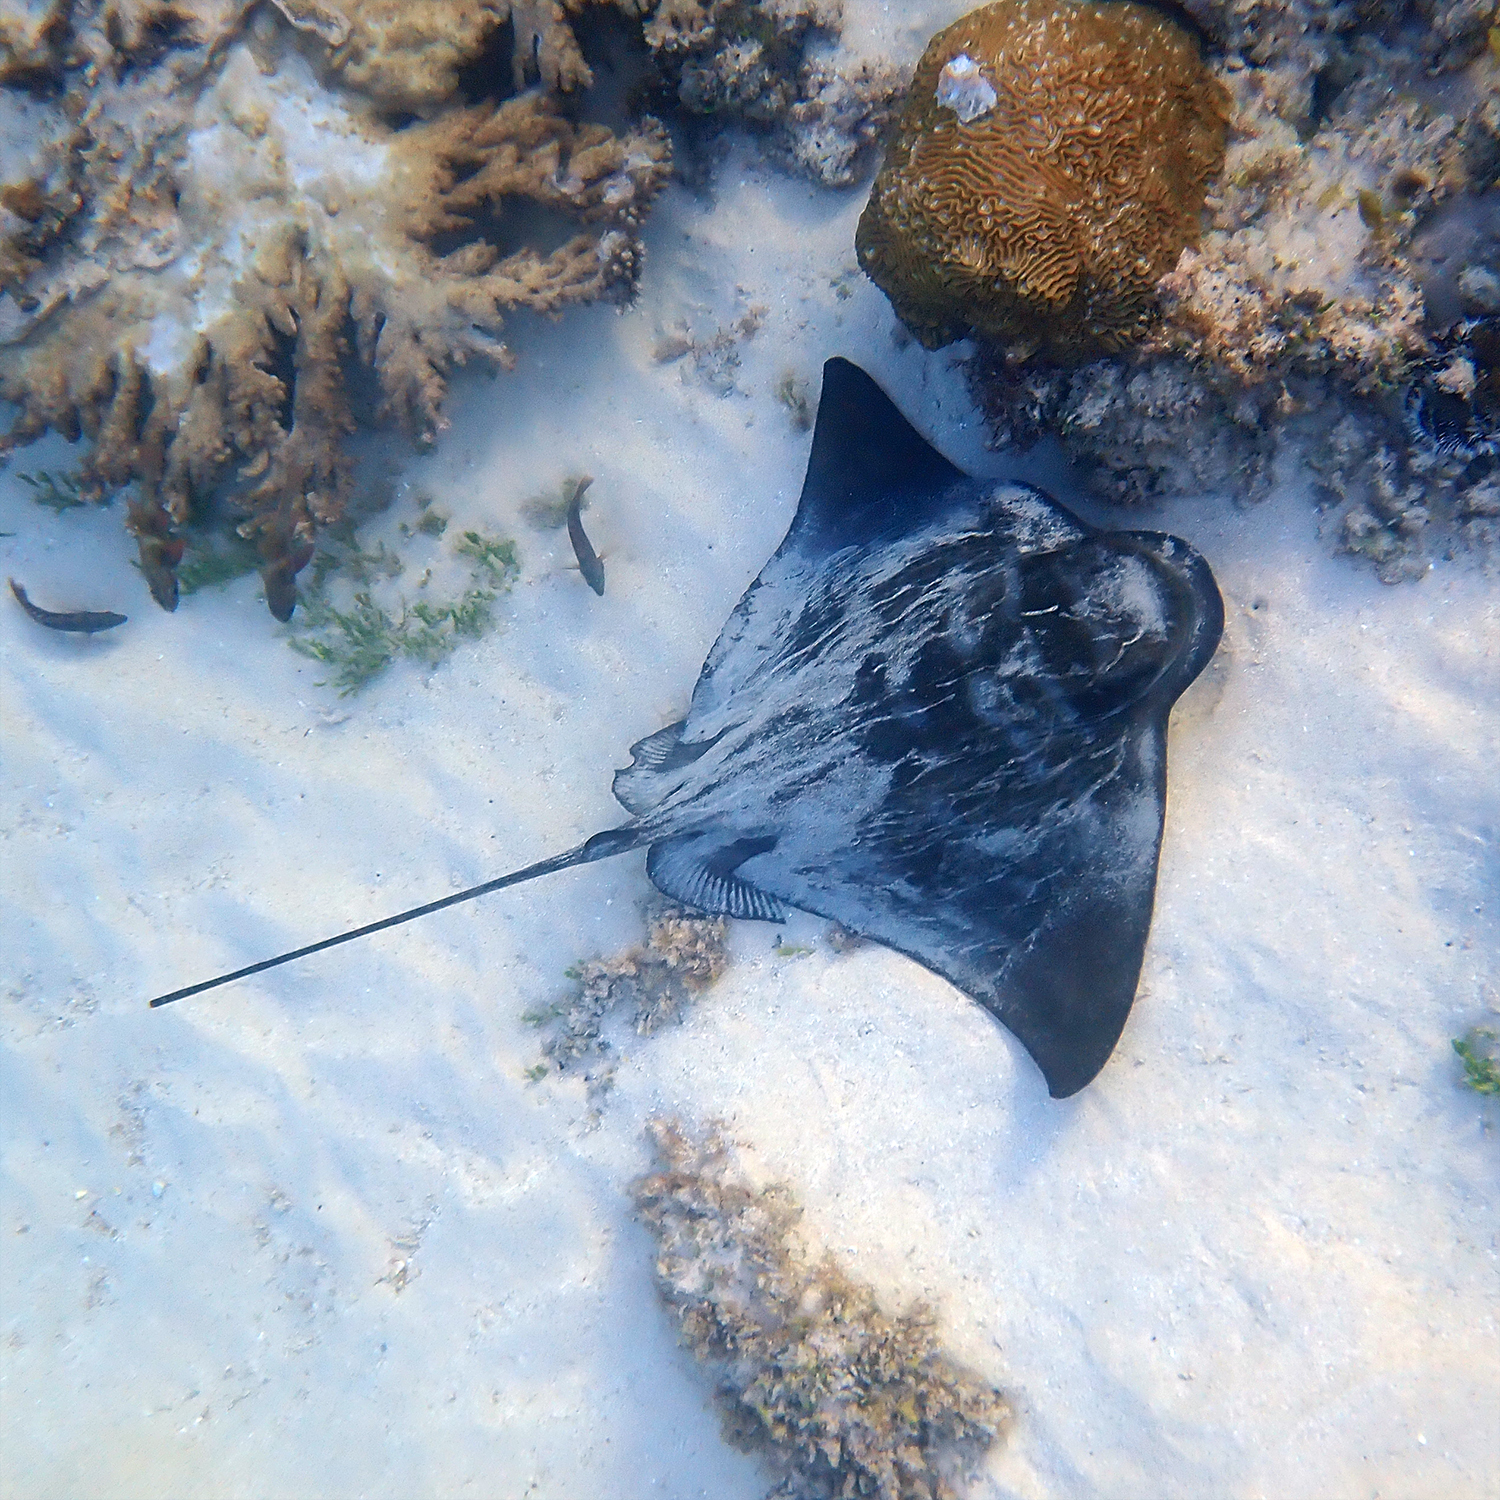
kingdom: Animalia
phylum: Chordata
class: Elasmobranchii
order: Myliobatiformes
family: Myliobatidae
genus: Myliobatis
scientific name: Myliobatis tenuicaudatus
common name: Eagle ray
